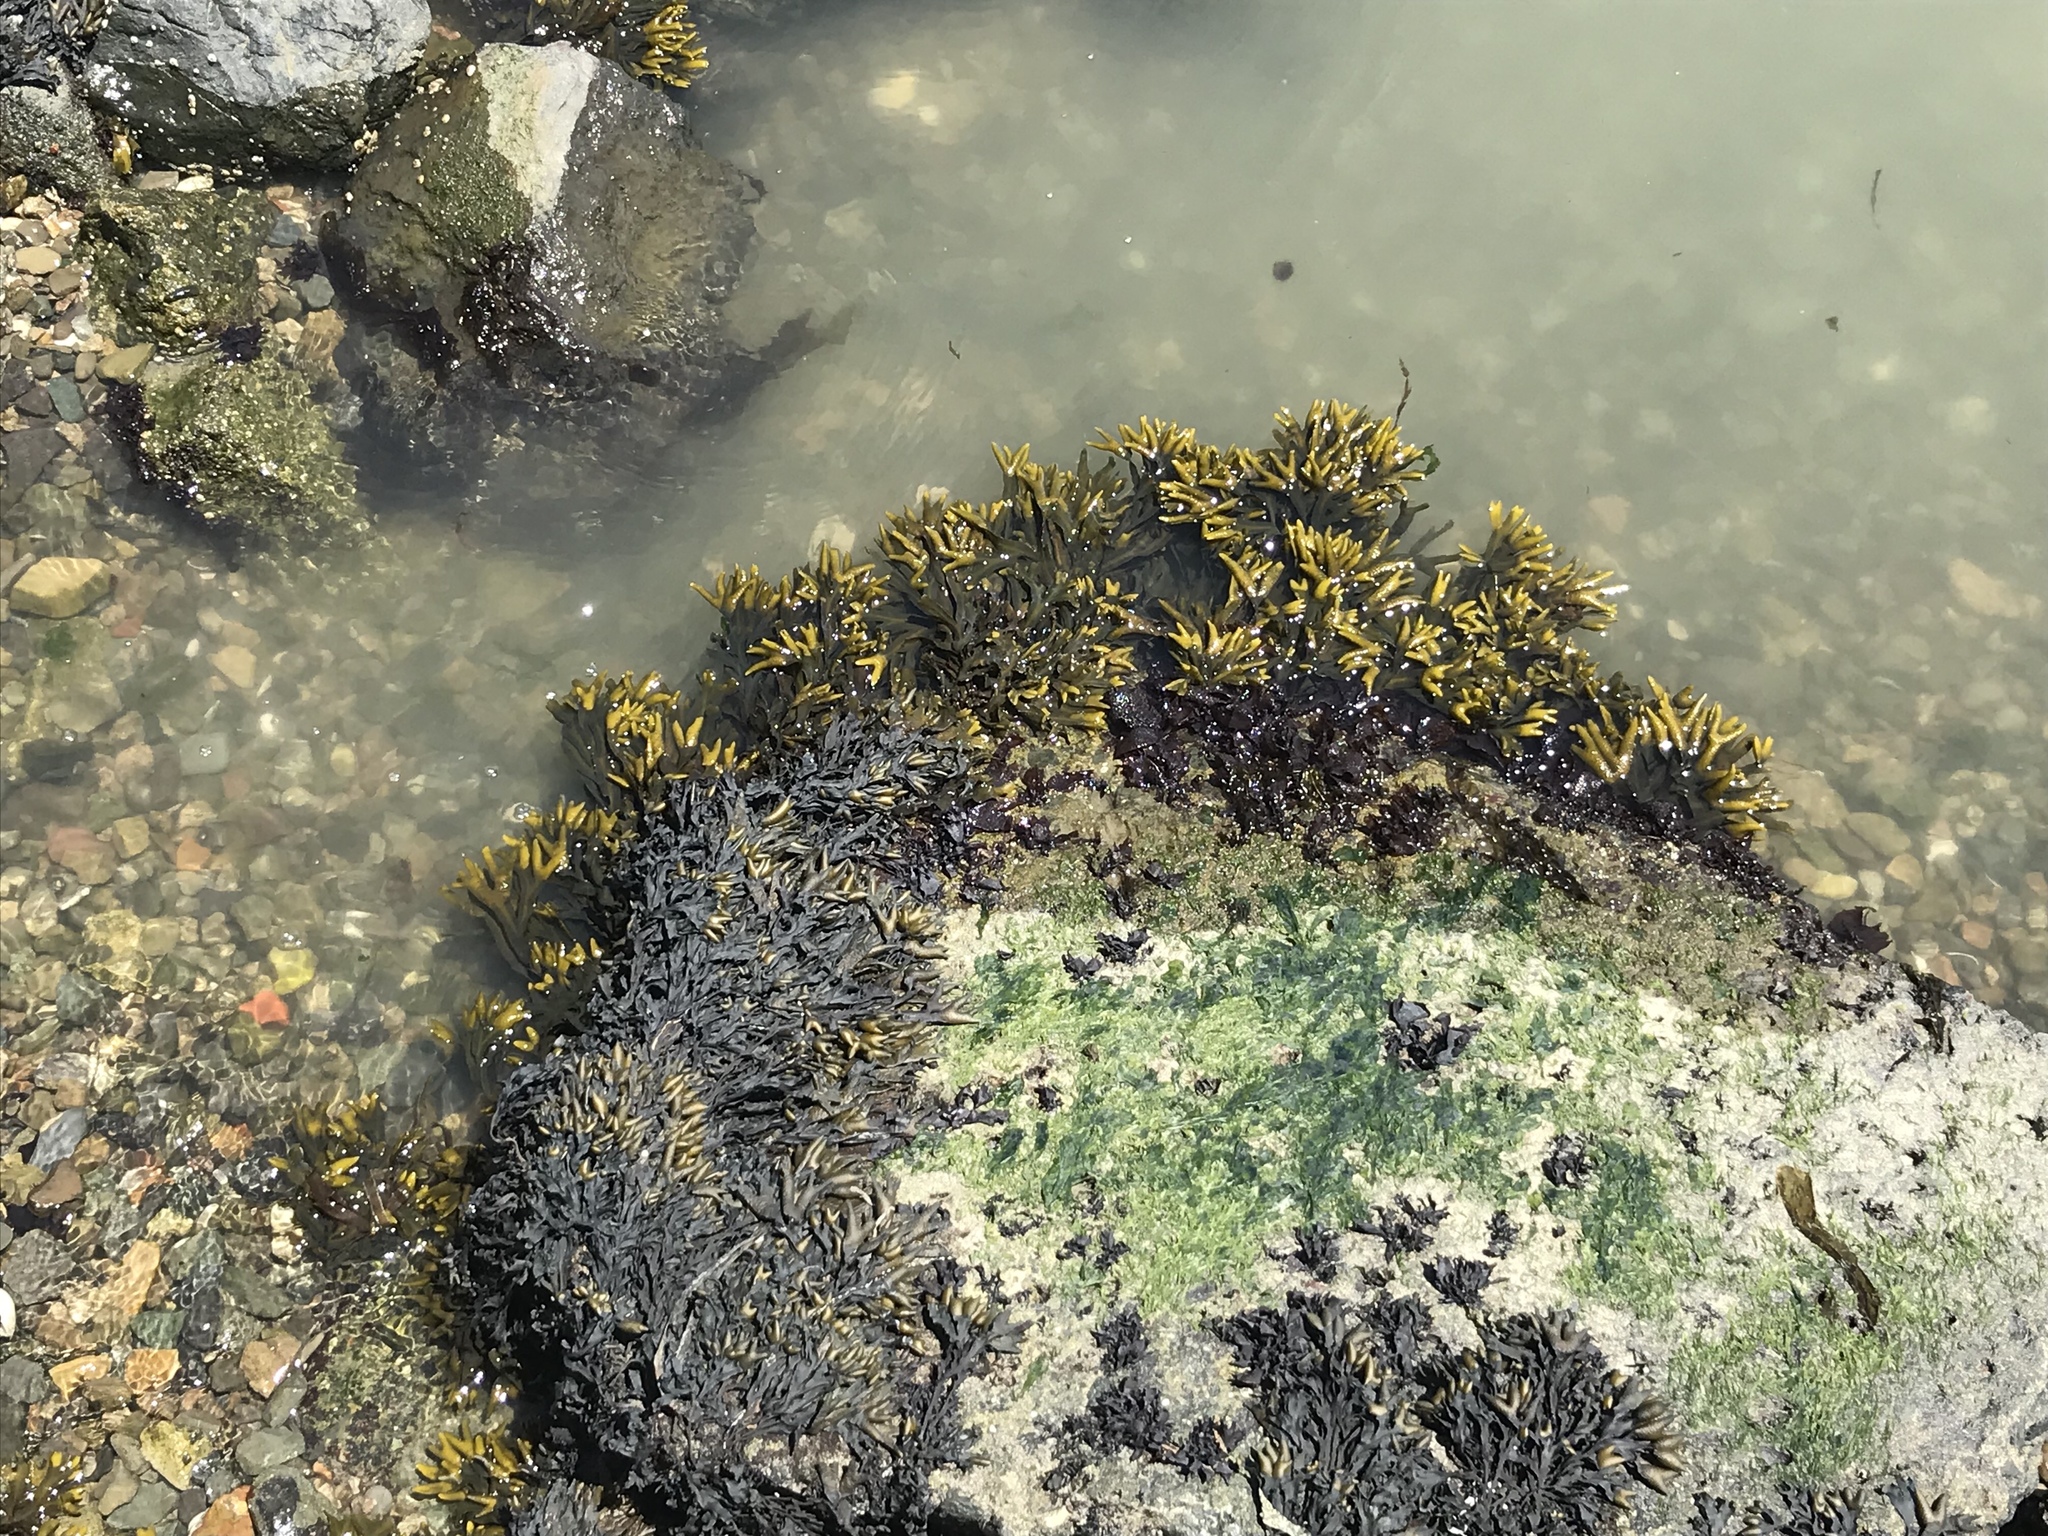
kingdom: Chromista
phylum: Ochrophyta
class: Phaeophyceae
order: Fucales
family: Fucaceae
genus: Fucus
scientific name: Fucus distichus
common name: Rockweed
